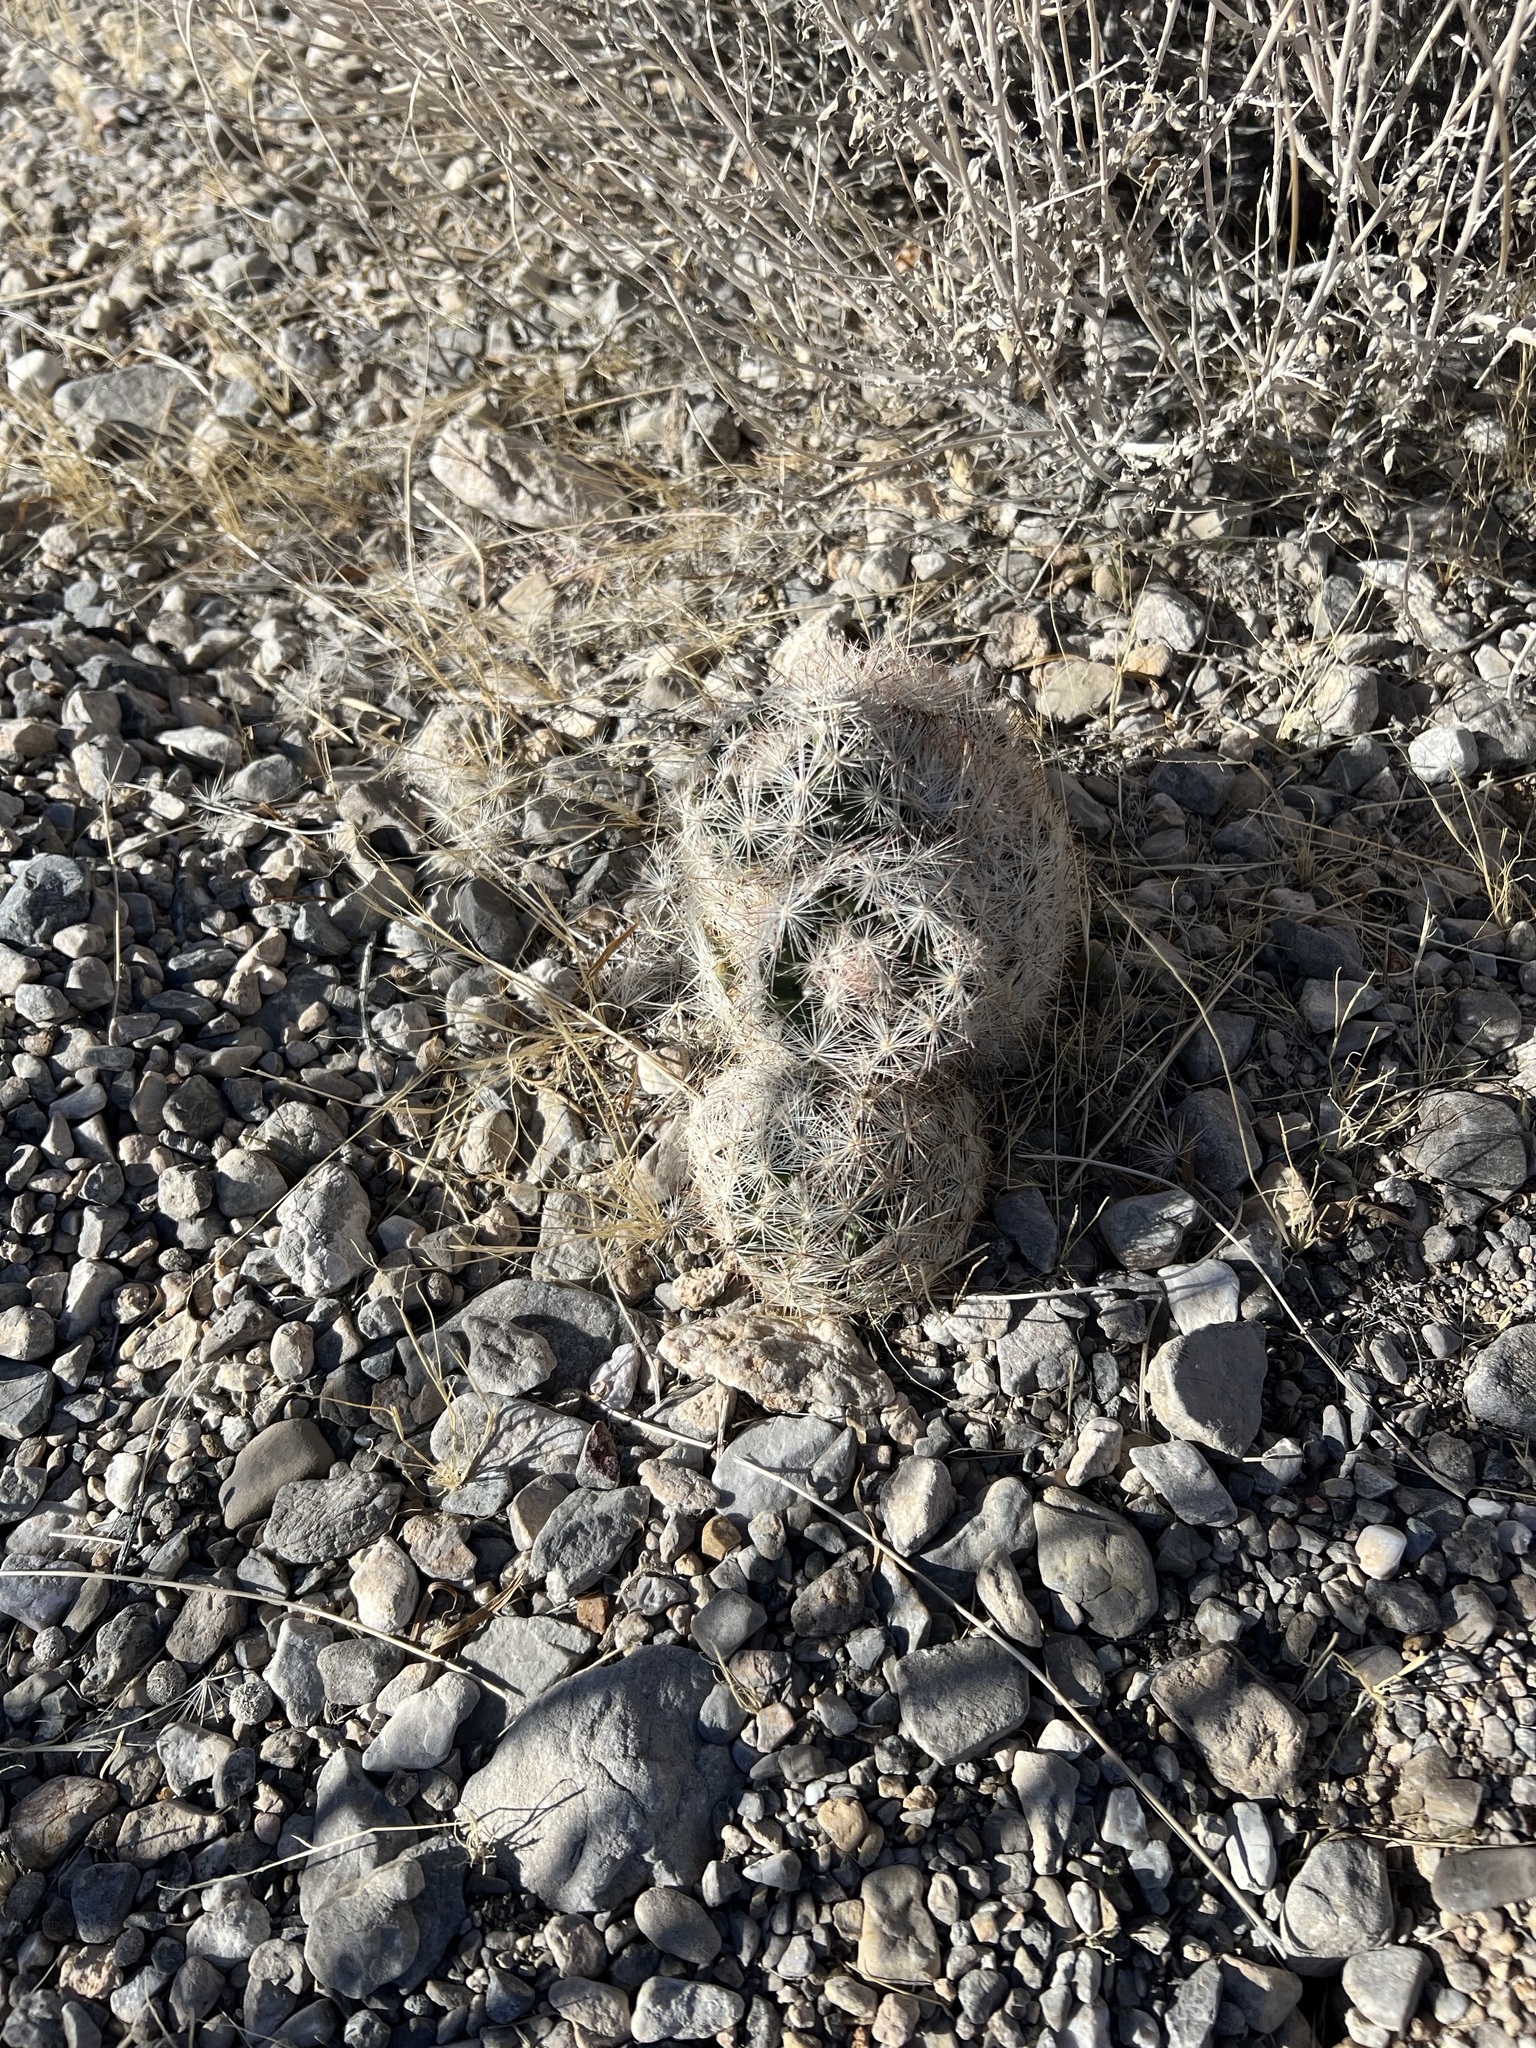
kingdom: Plantae
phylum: Tracheophyta
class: Magnoliopsida
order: Caryophyllales
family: Cactaceae
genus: Pelecyphora
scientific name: Pelecyphora dasyacantha
